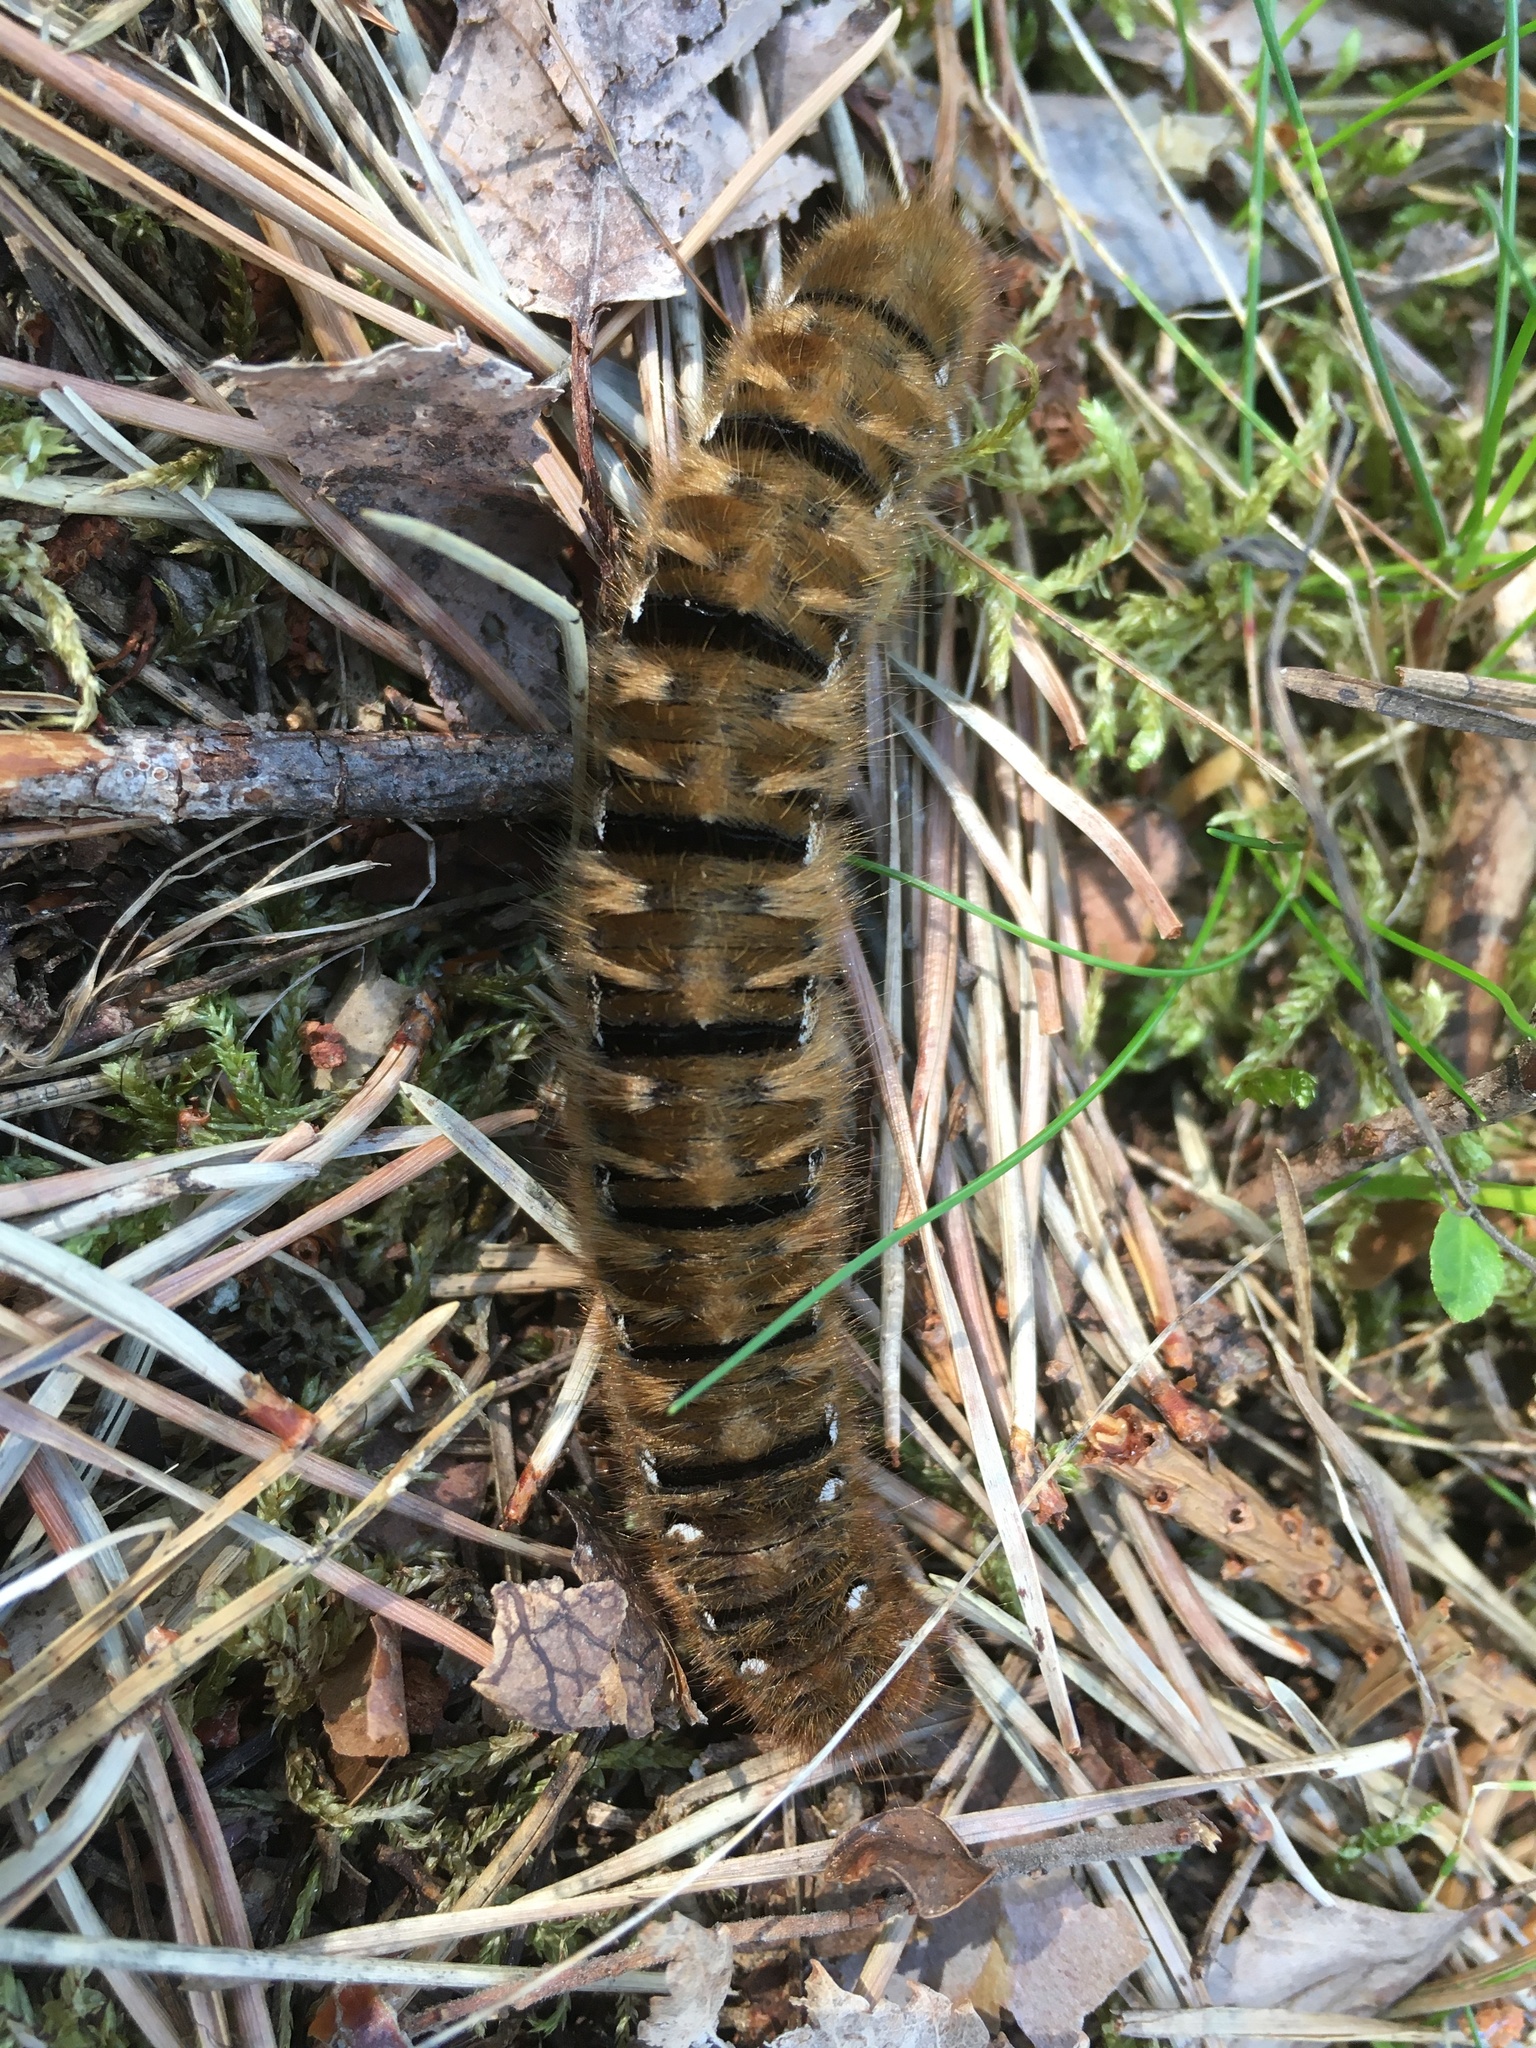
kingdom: Animalia
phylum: Arthropoda
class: Insecta
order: Lepidoptera
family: Lasiocampidae
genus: Lasiocampa
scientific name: Lasiocampa quercus
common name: Oak eggar
